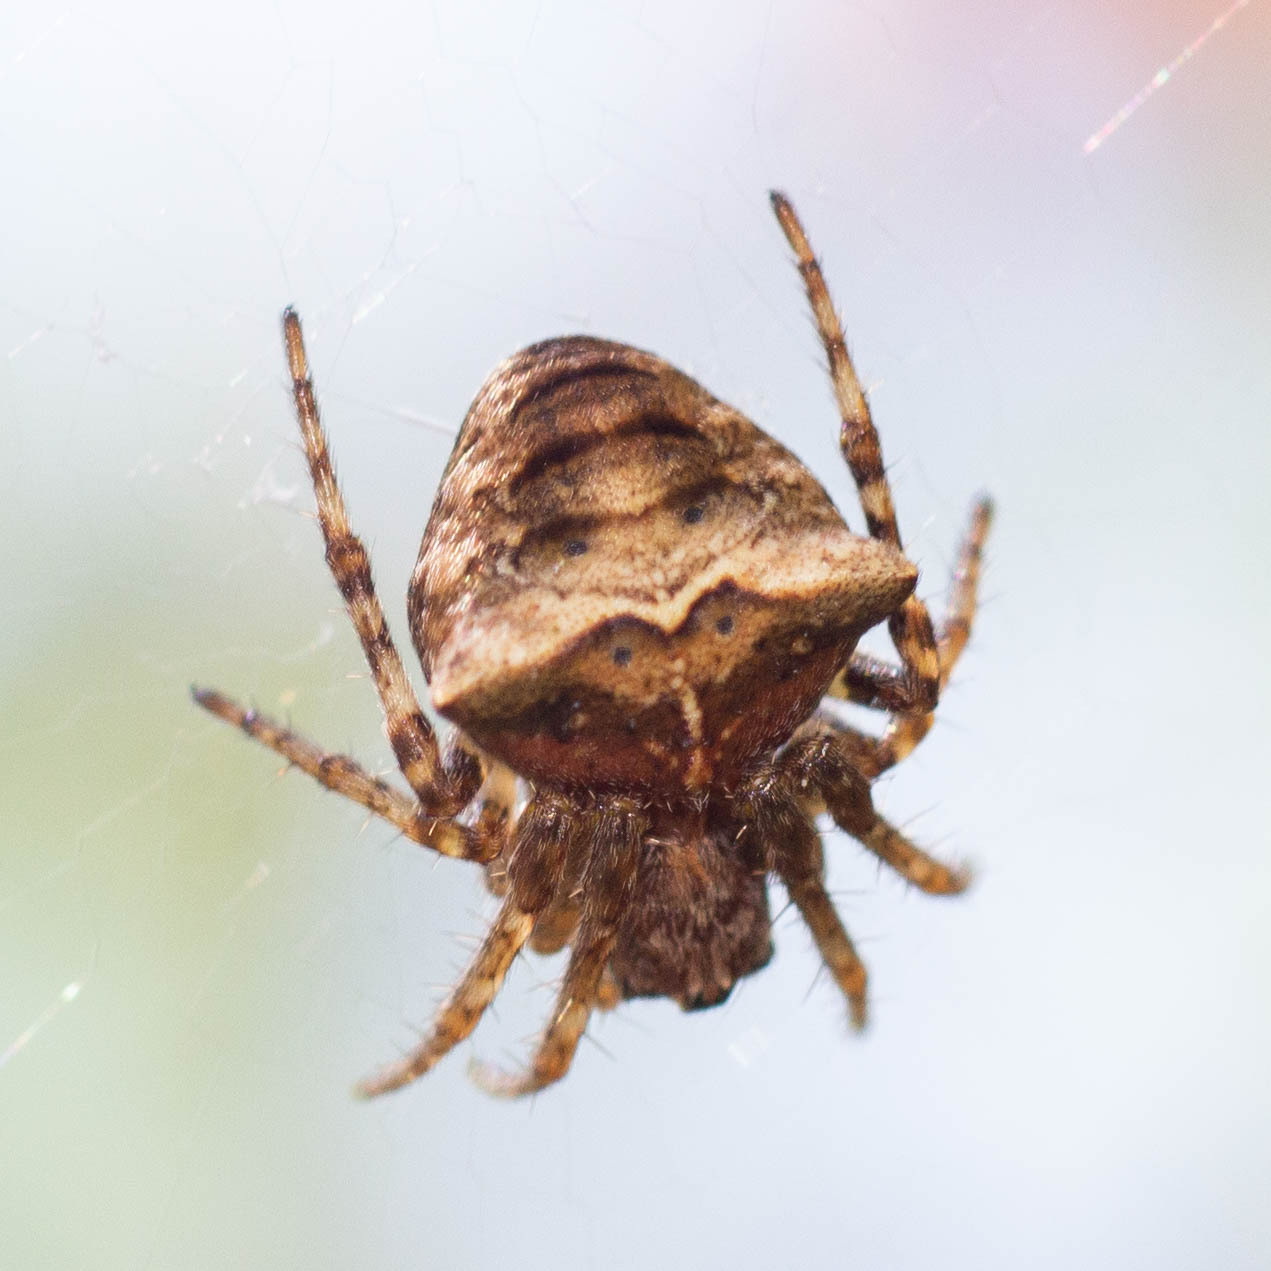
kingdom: Animalia
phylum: Arthropoda
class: Arachnida
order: Araneae
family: Araneidae
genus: Gibbaranea
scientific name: Gibbaranea bituberculata
